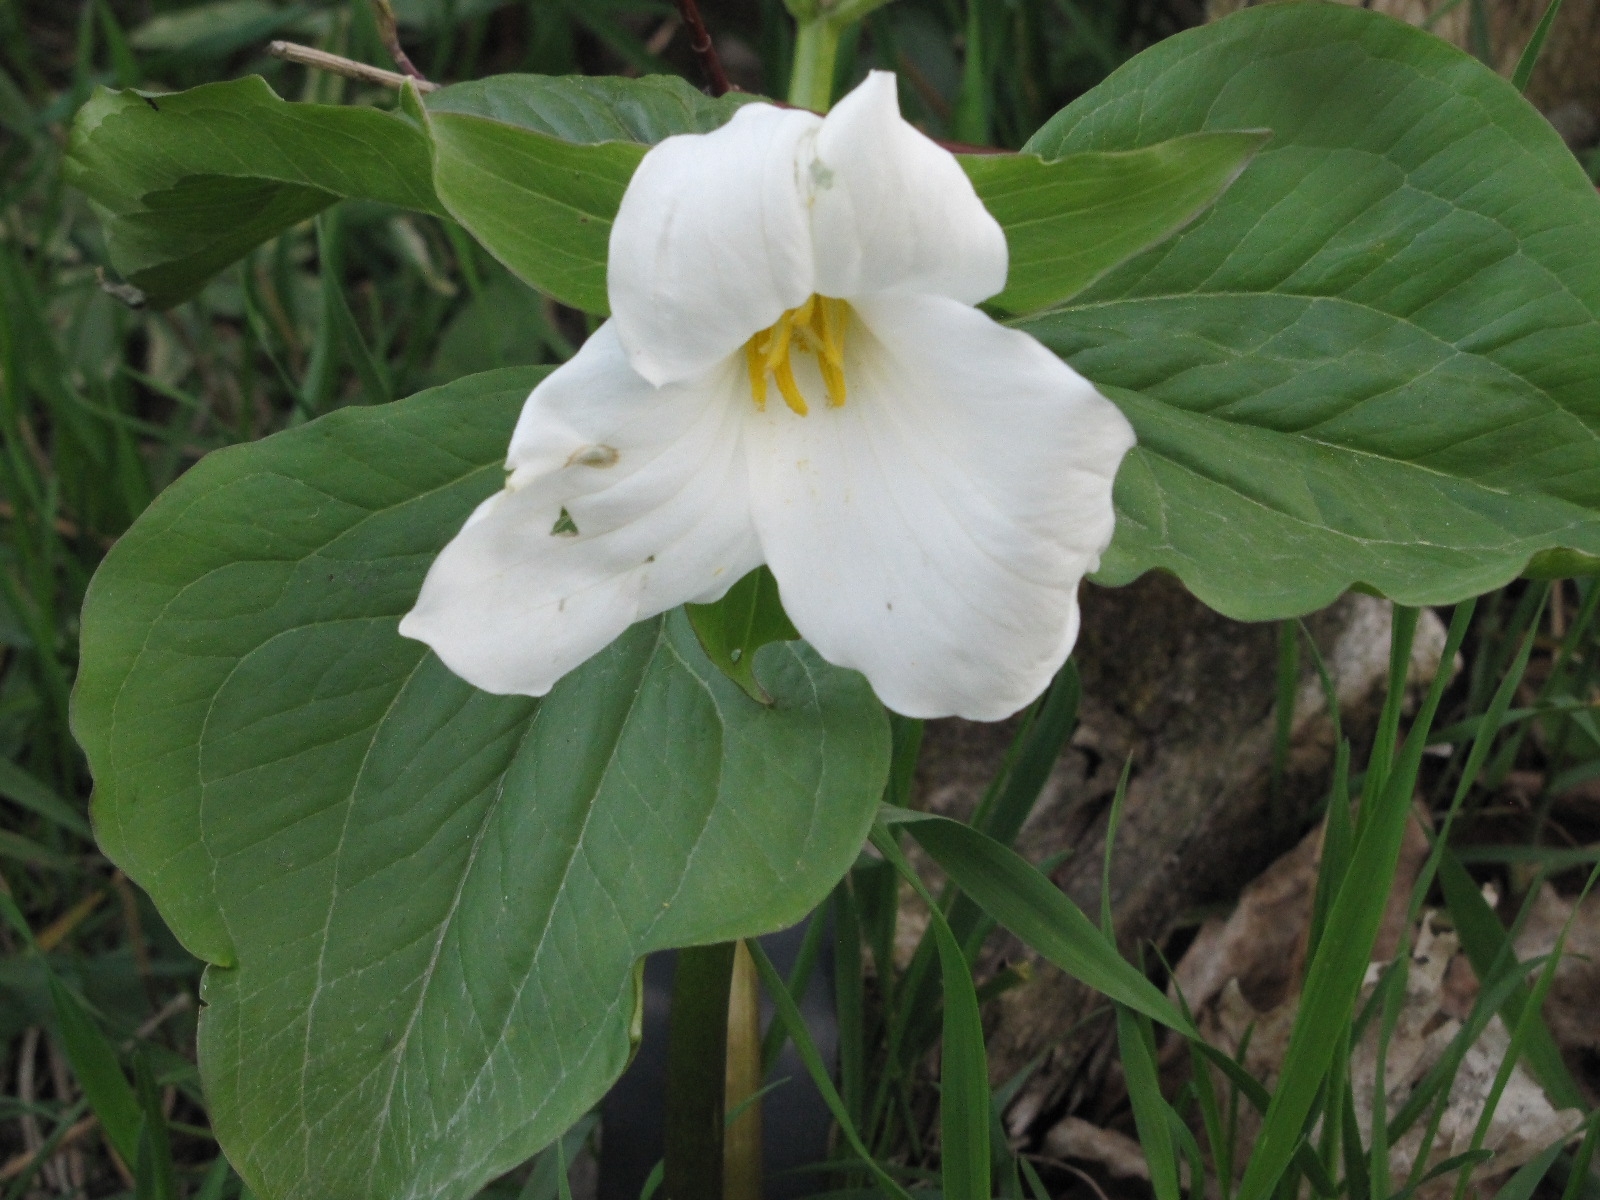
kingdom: Plantae
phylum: Tracheophyta
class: Liliopsida
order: Liliales
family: Melanthiaceae
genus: Trillium
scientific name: Trillium grandiflorum
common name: Great white trillium
